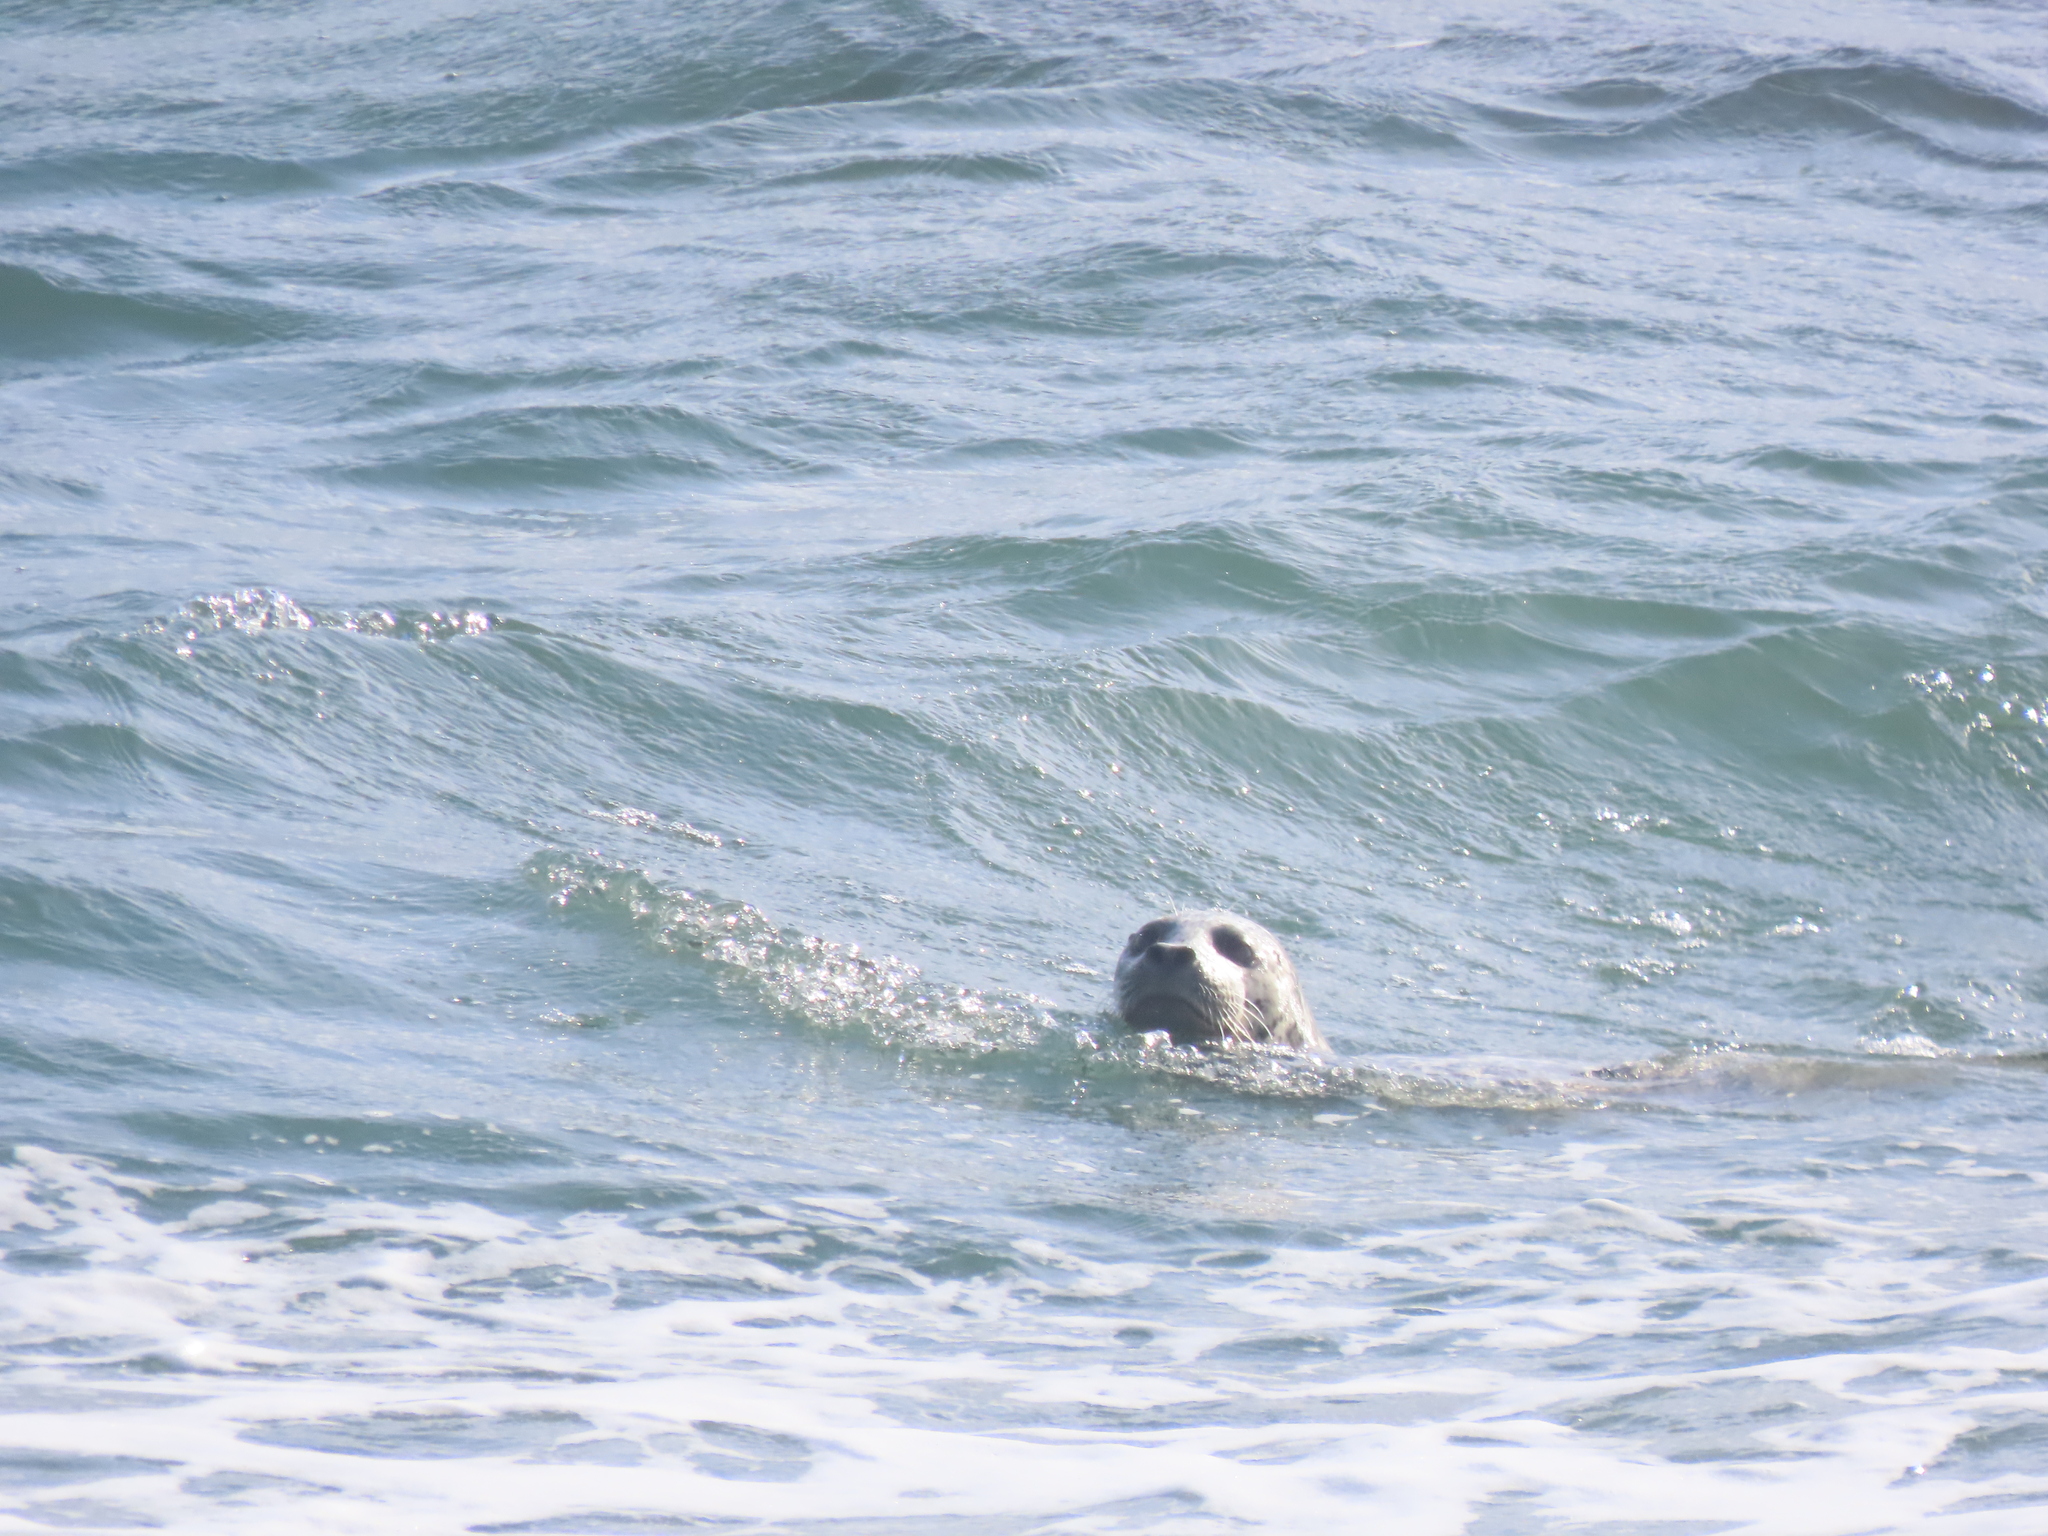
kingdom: Animalia
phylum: Chordata
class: Mammalia
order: Carnivora
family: Phocidae
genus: Phoca
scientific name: Phoca vitulina
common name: Harbor seal
